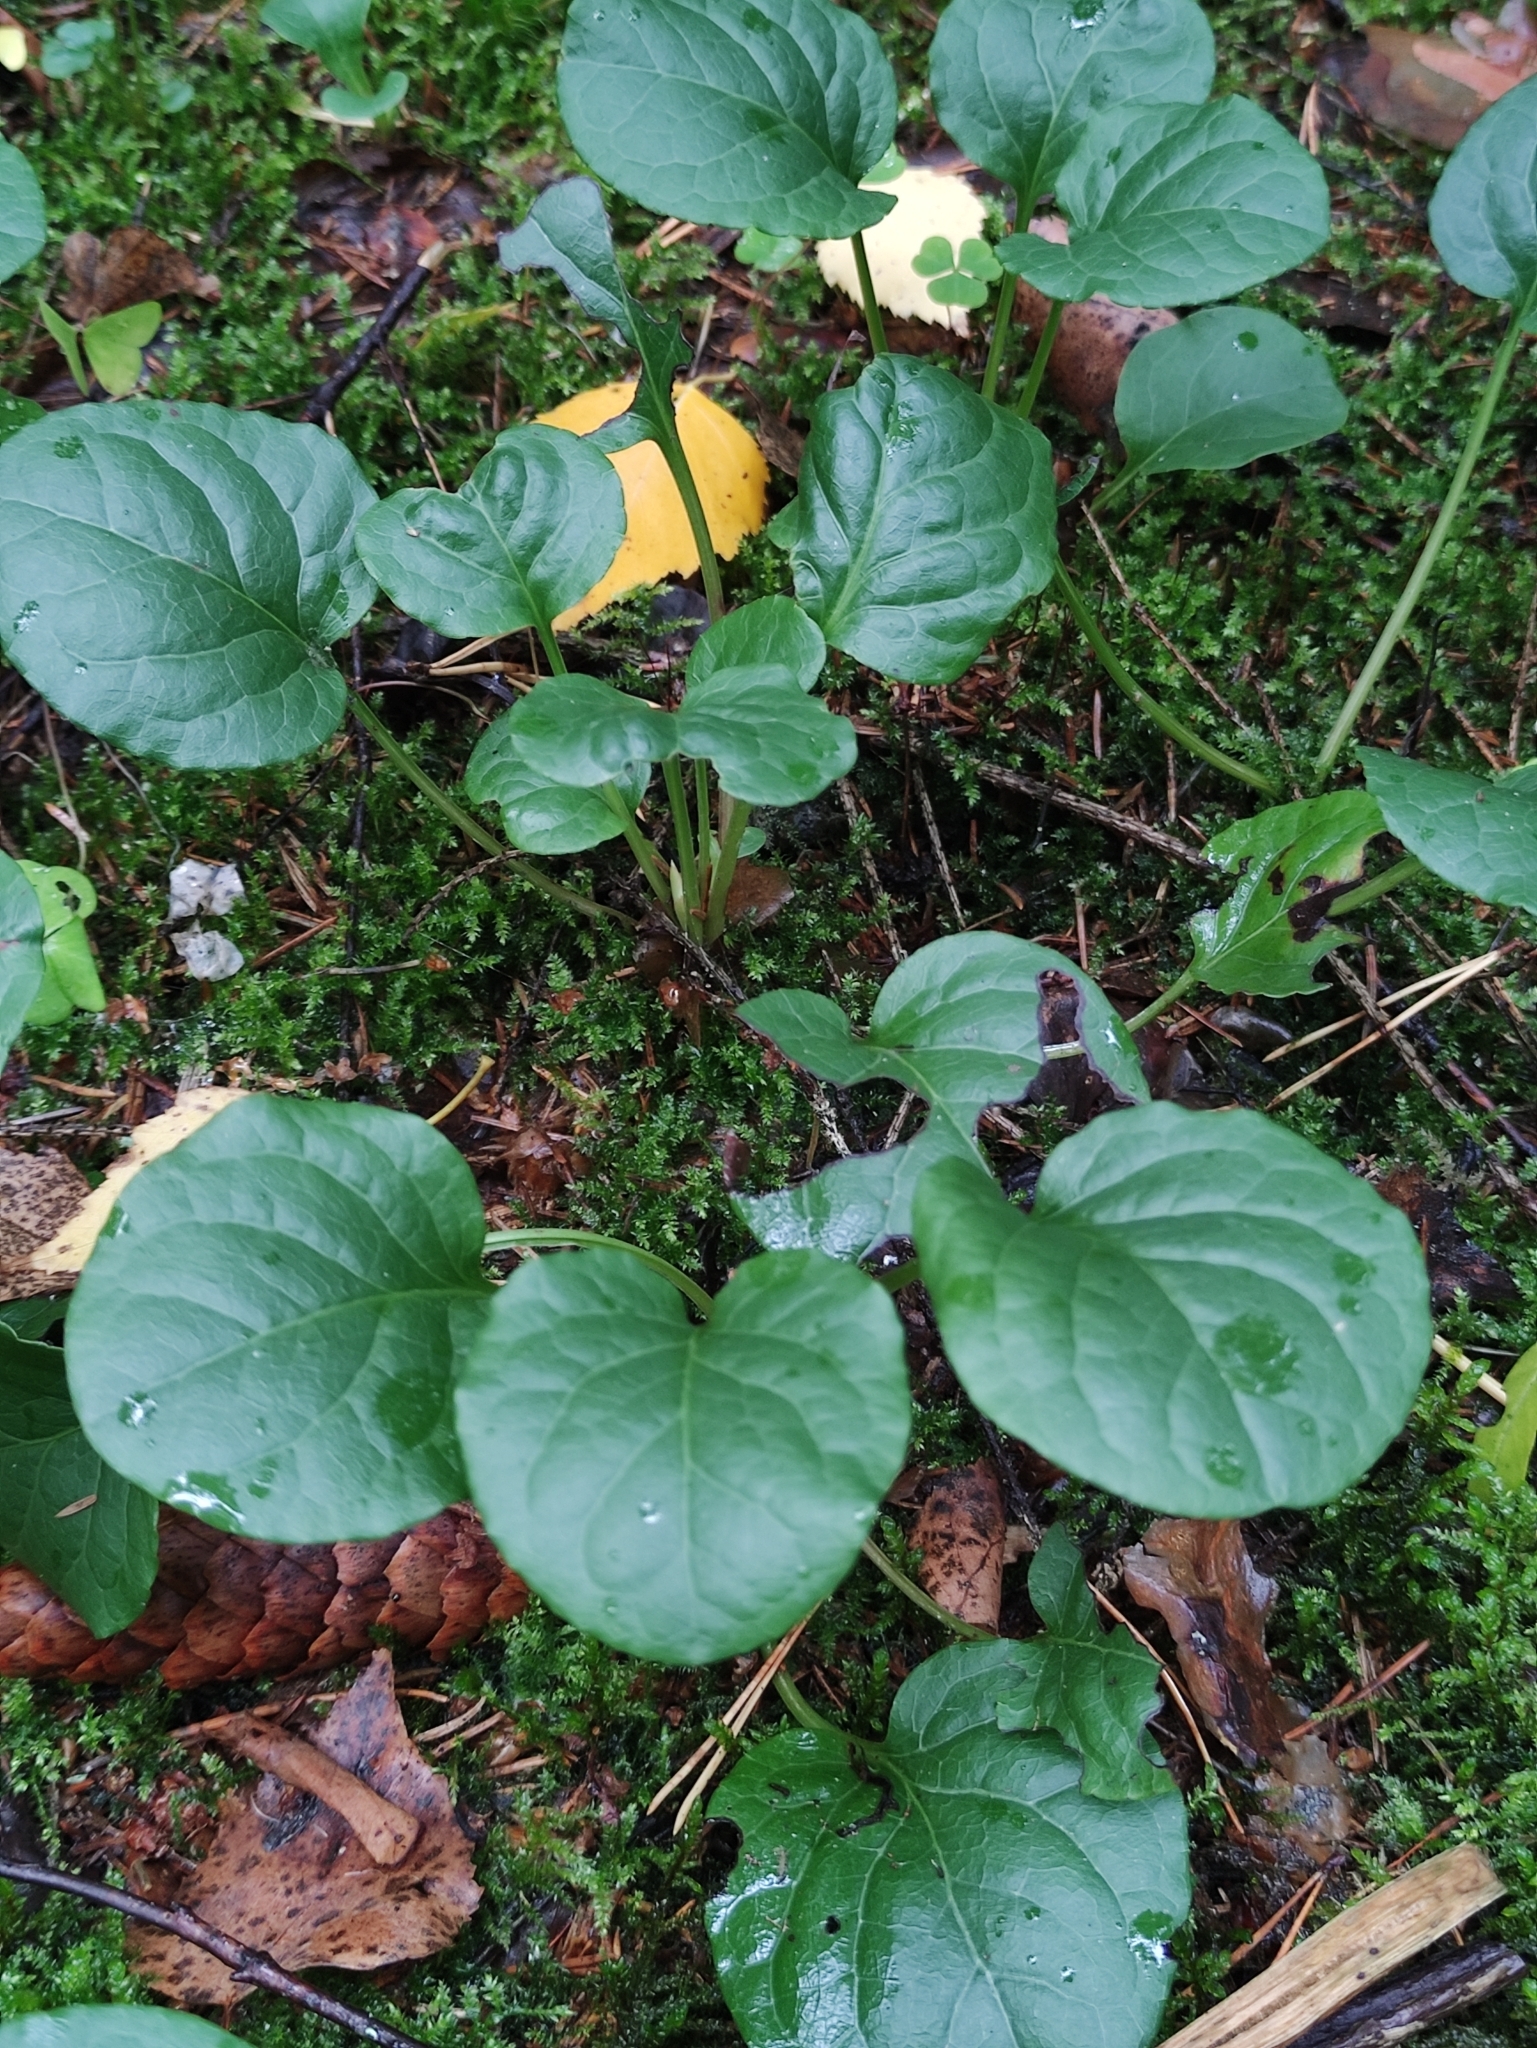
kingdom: Plantae
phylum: Tracheophyta
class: Magnoliopsida
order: Ericales
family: Ericaceae
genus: Pyrola
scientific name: Pyrola
